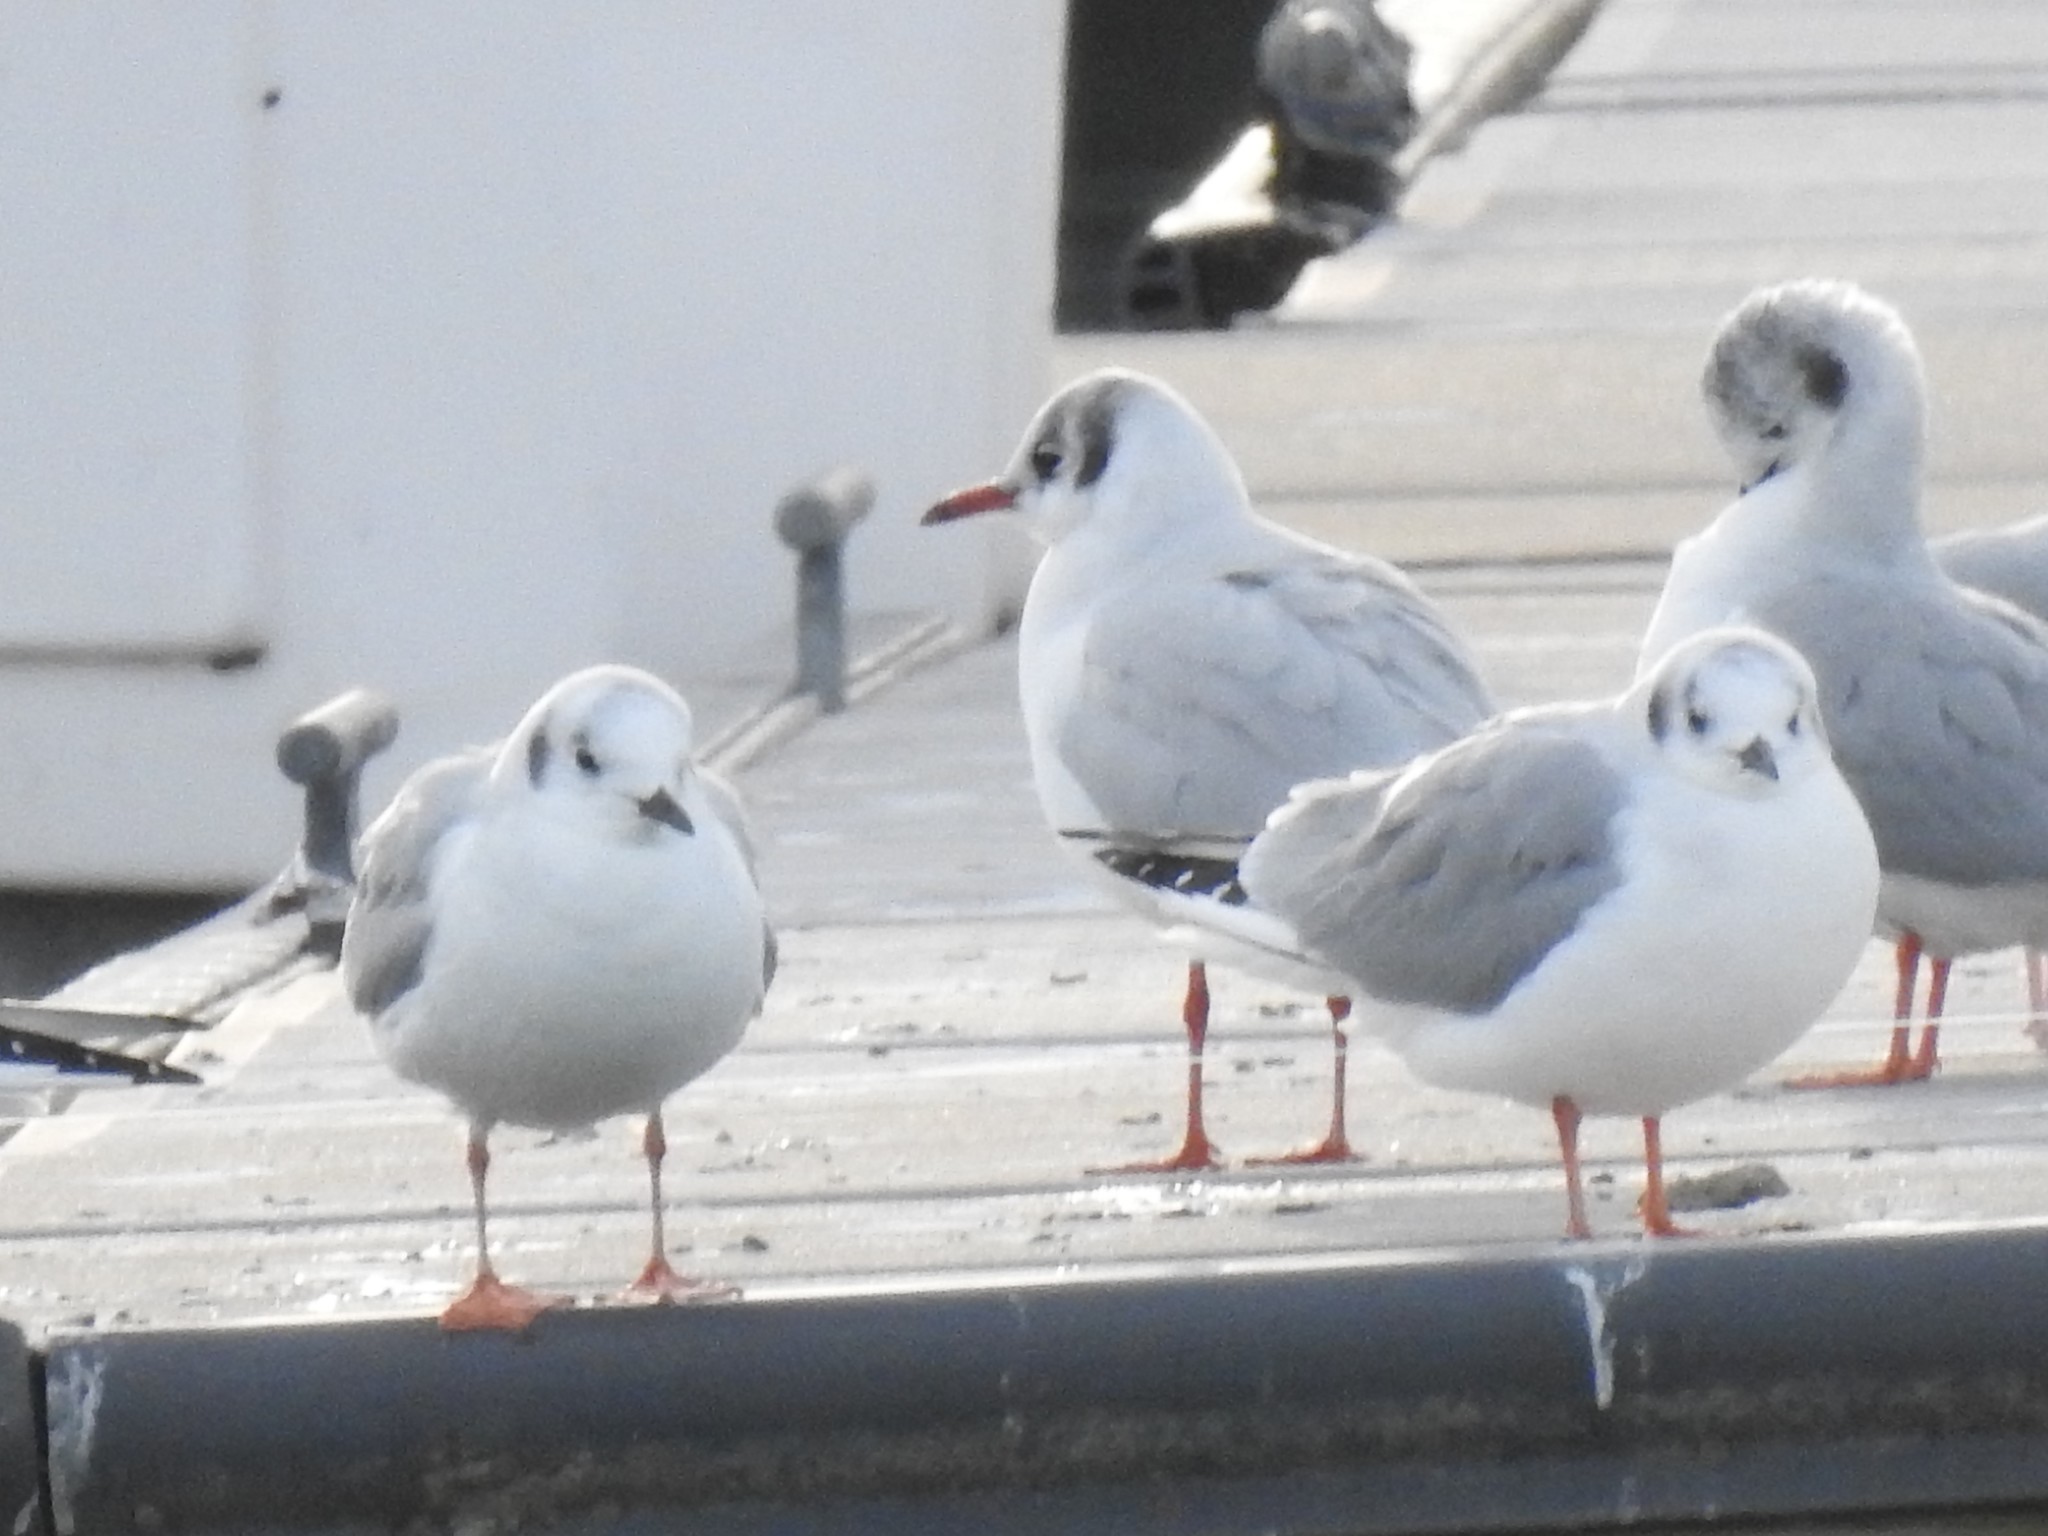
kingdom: Animalia
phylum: Chordata
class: Aves
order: Charadriiformes
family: Laridae
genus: Chroicocephalus
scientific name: Chroicocephalus ridibundus
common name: Black-headed gull
